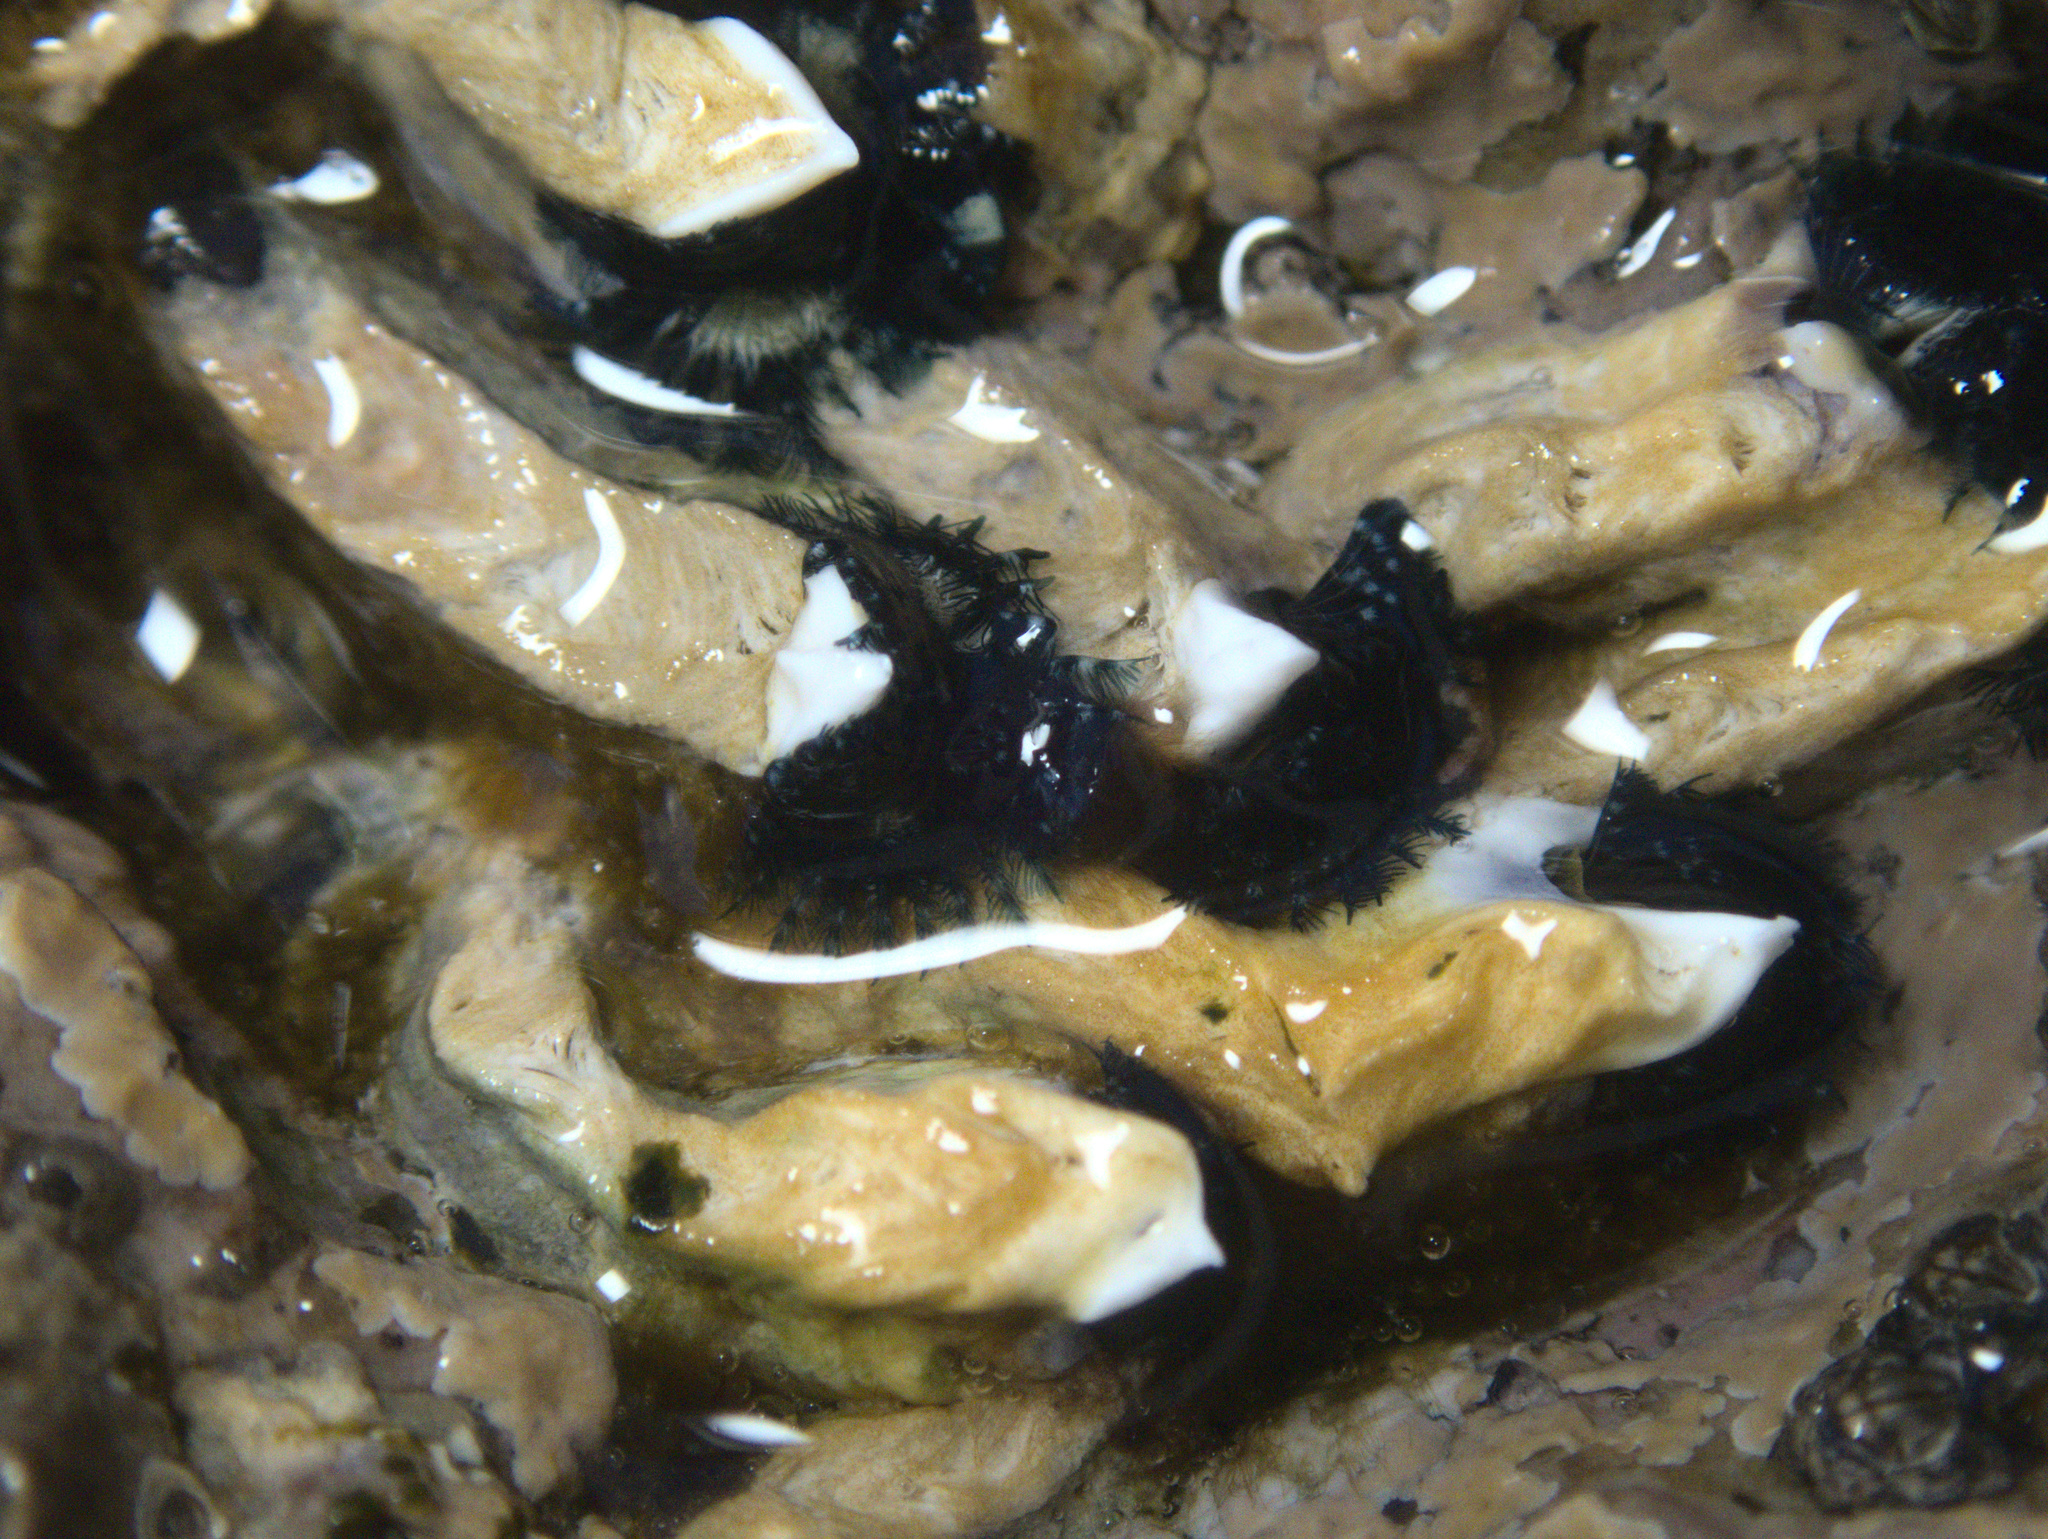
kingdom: Animalia
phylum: Annelida
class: Polychaeta
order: Sabellida
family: Serpulidae
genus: Spirobranchus
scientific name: Spirobranchus cariniferus
